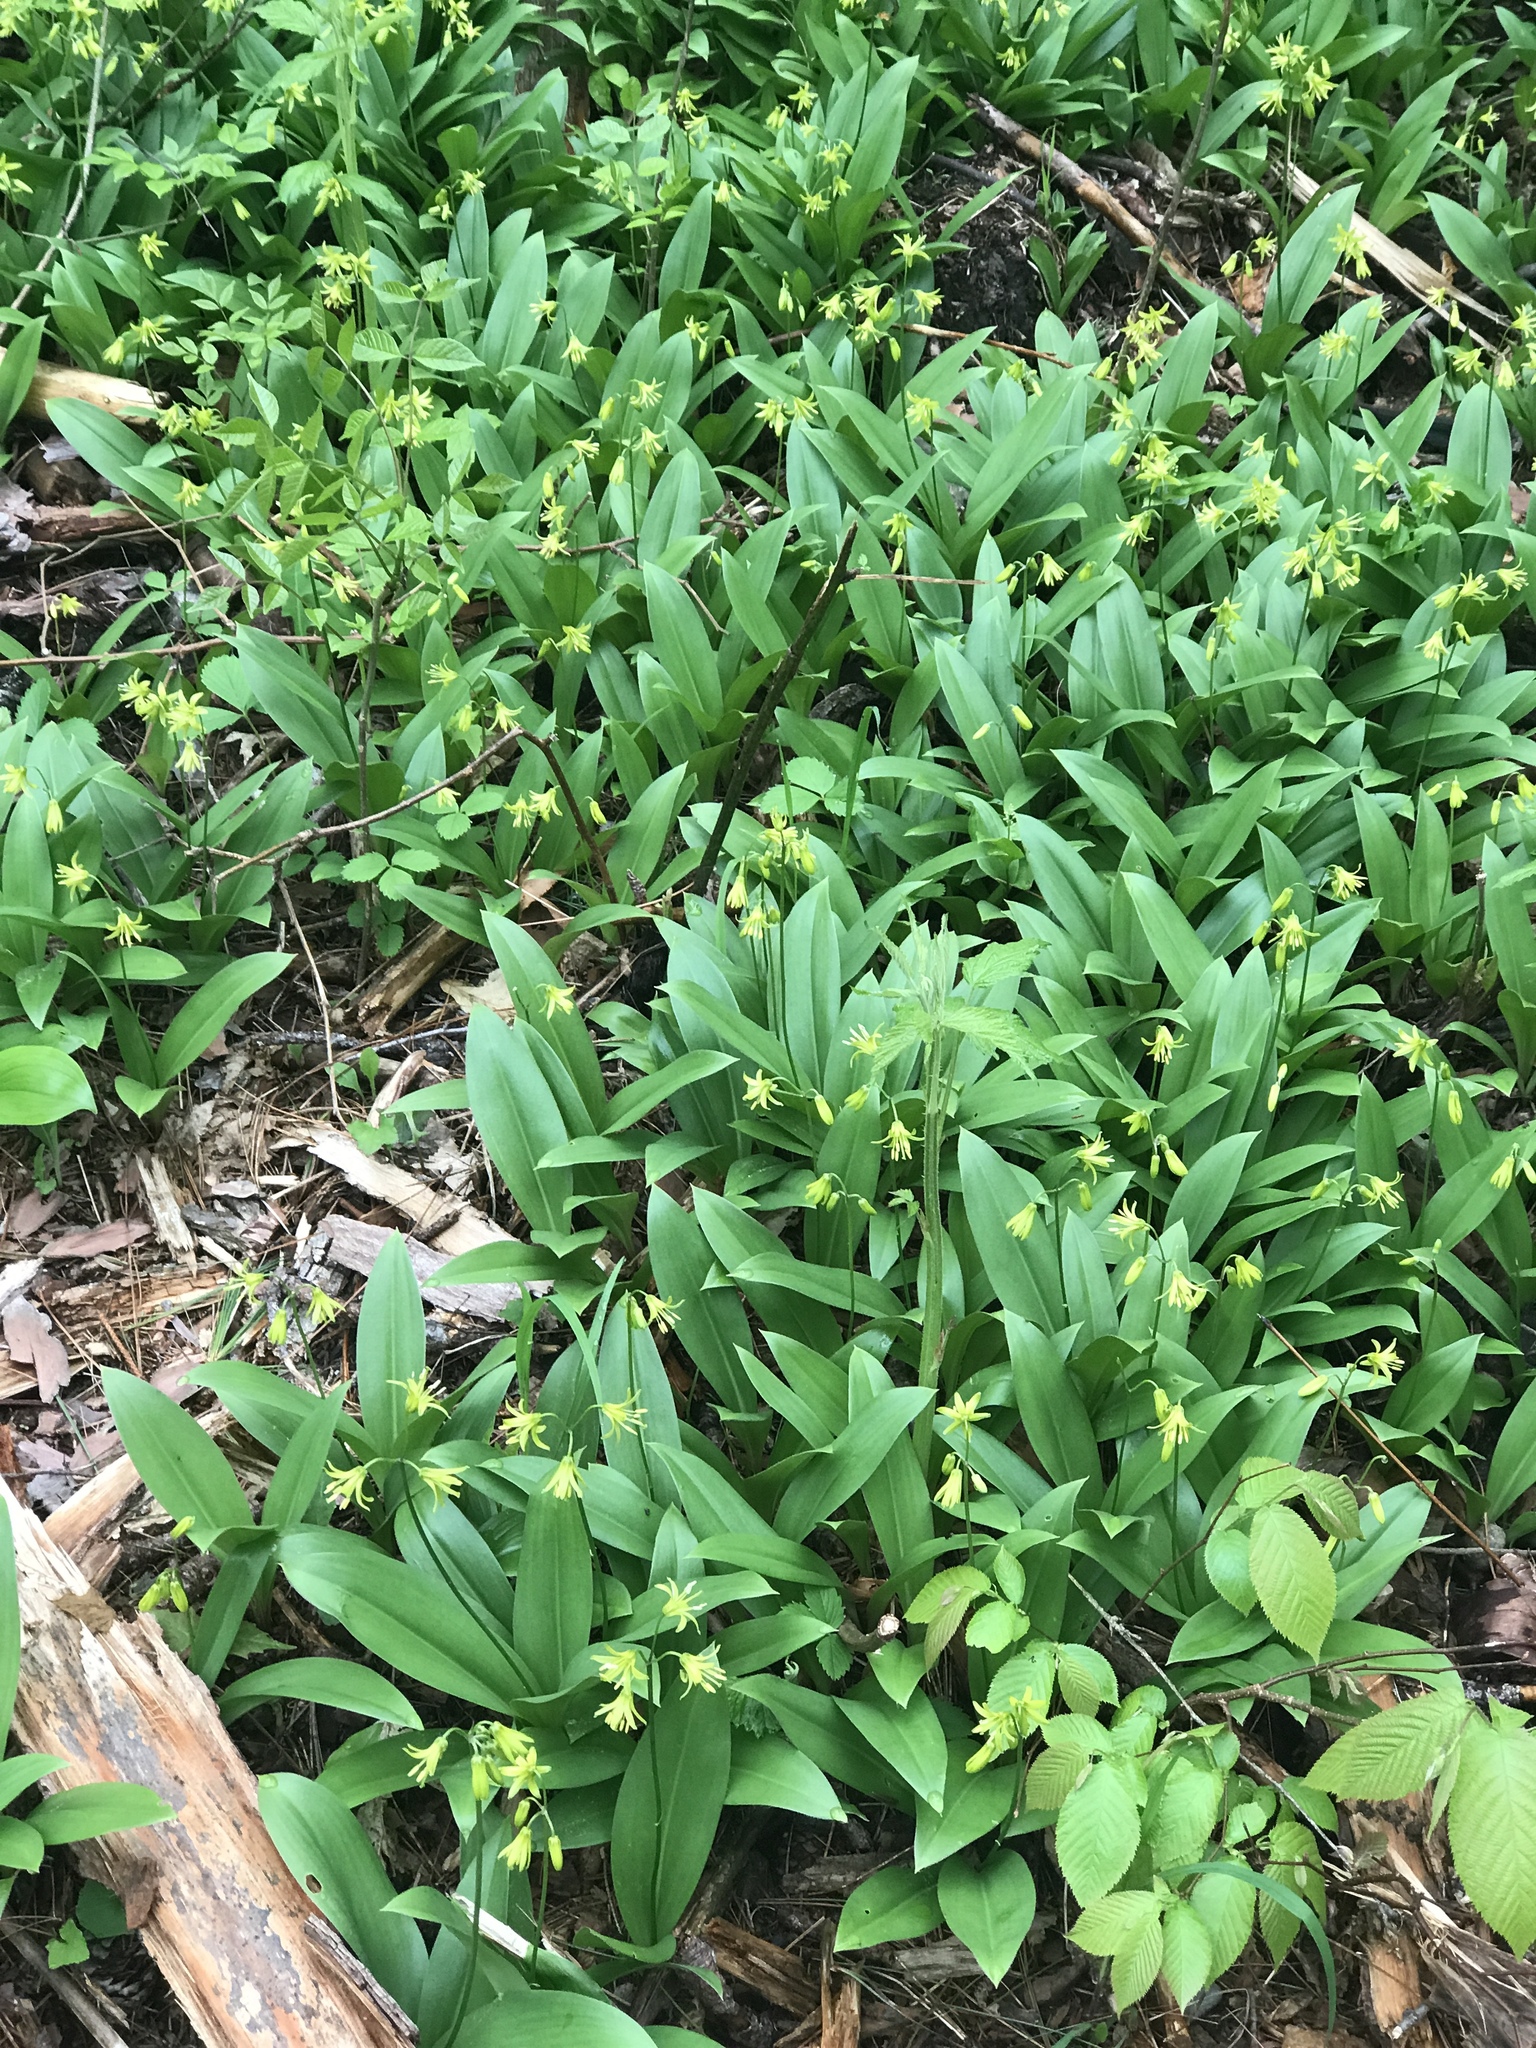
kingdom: Plantae
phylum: Tracheophyta
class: Liliopsida
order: Liliales
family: Liliaceae
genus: Clintonia
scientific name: Clintonia borealis
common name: Yellow clintonia
